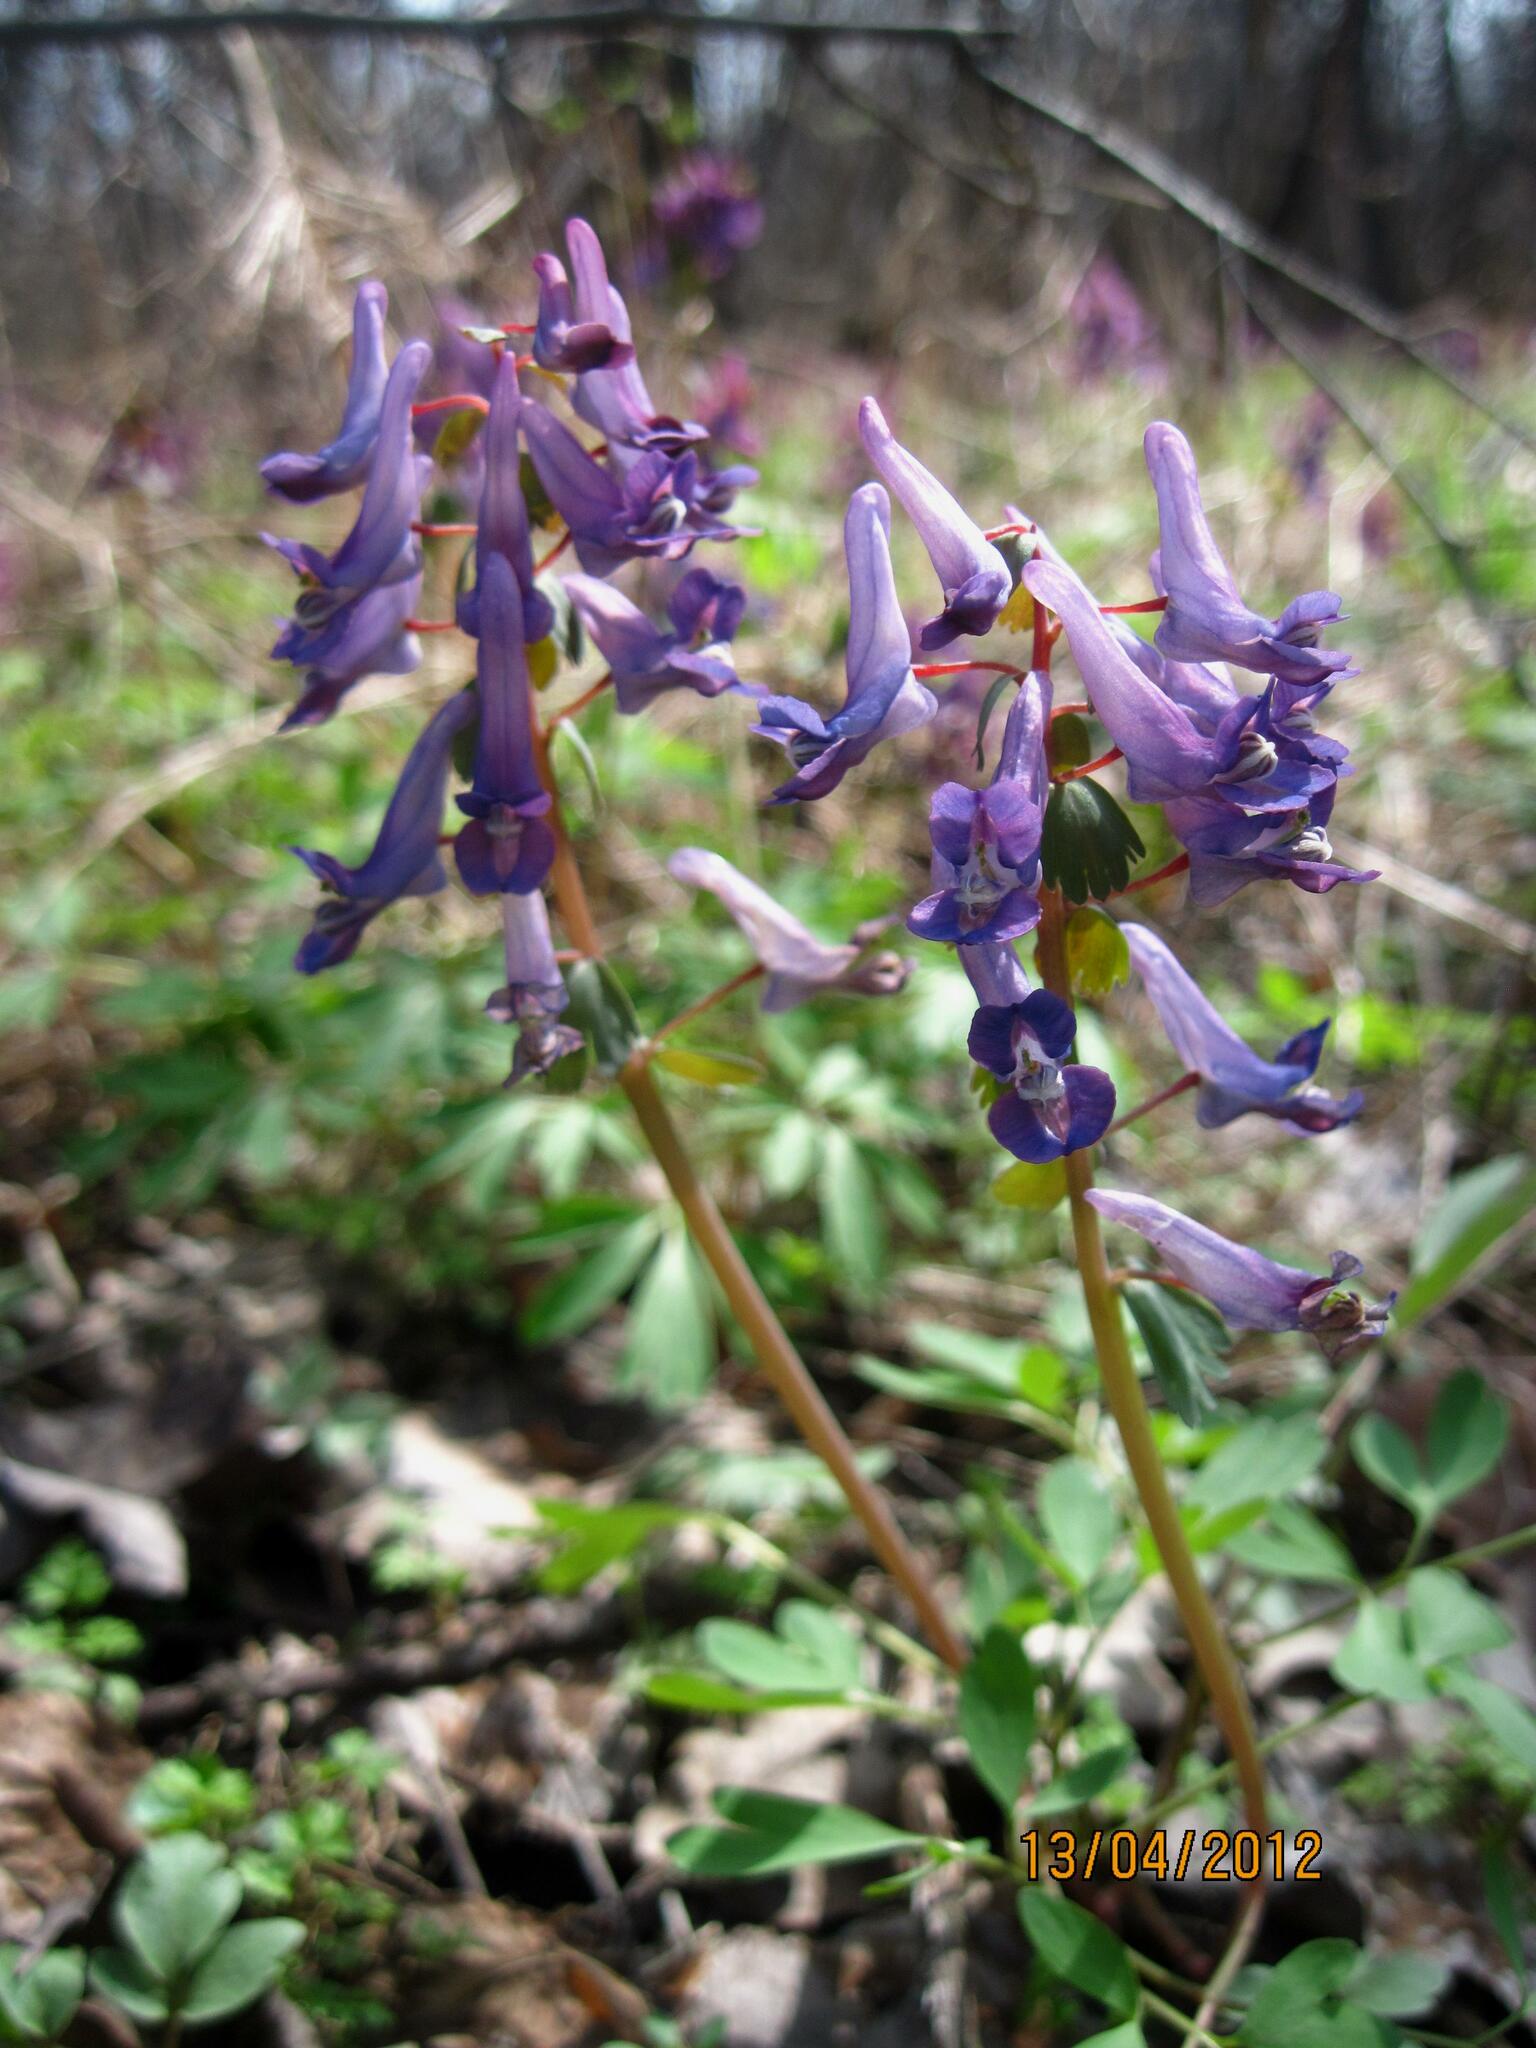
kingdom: Plantae
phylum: Tracheophyta
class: Magnoliopsida
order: Ranunculales
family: Papaveraceae
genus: Corydalis
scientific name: Corydalis solida
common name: Bird-in-a-bush
